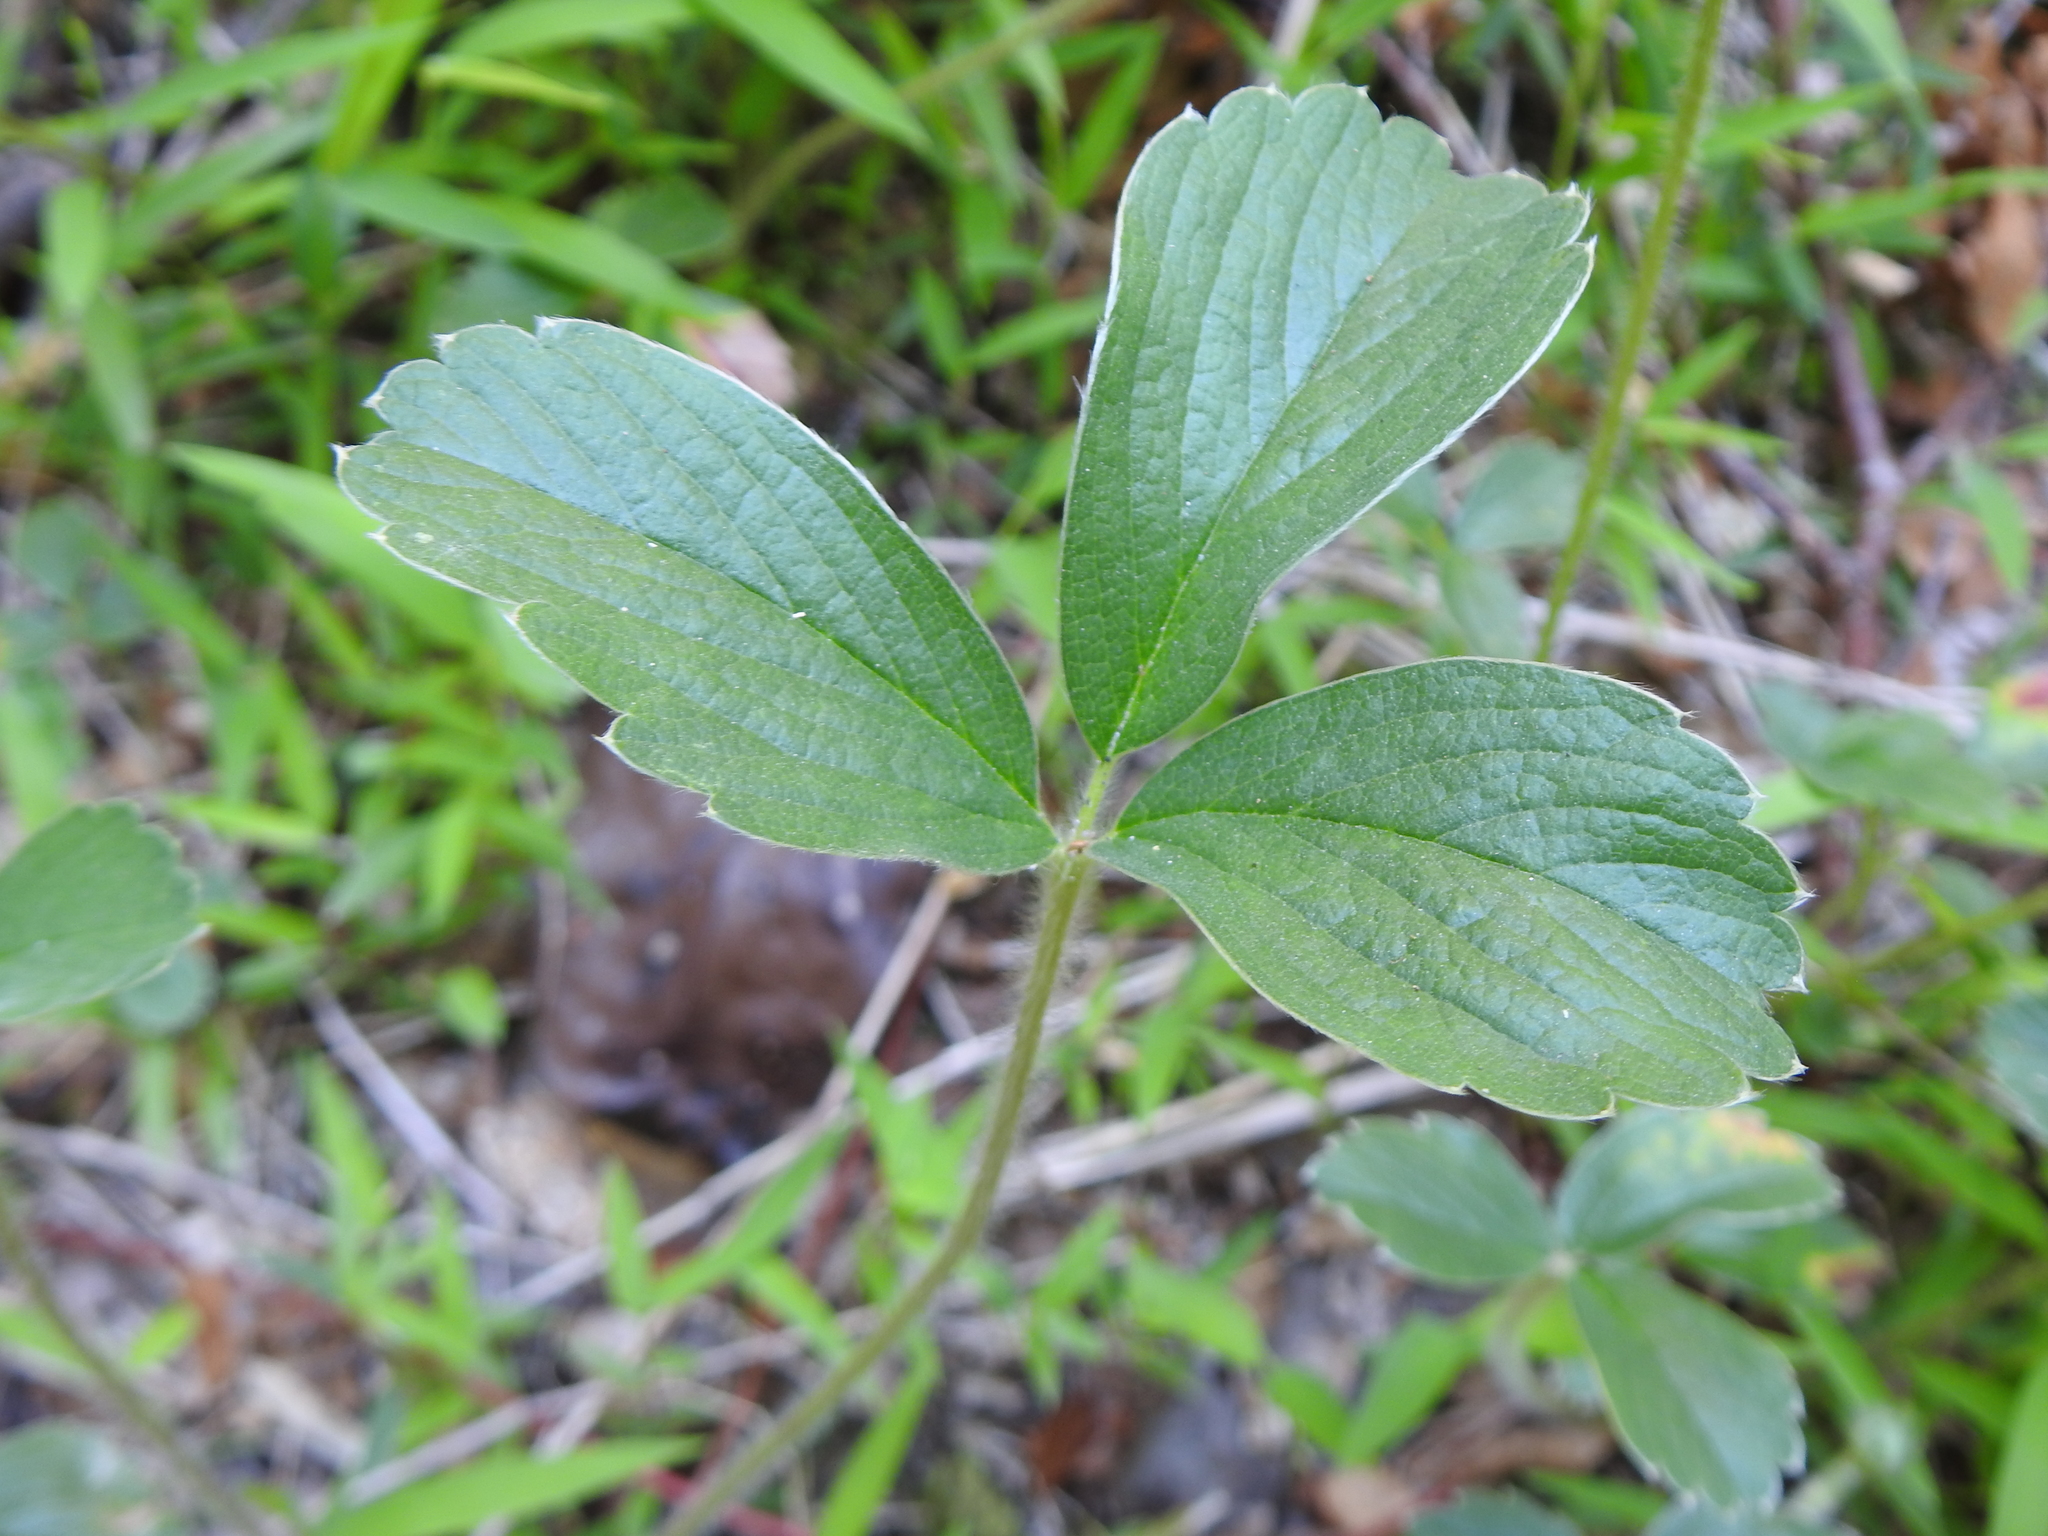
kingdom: Plantae
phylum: Tracheophyta
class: Magnoliopsida
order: Rosales
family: Rosaceae
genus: Fragaria
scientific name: Fragaria chiloensis
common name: Beach strawberry
